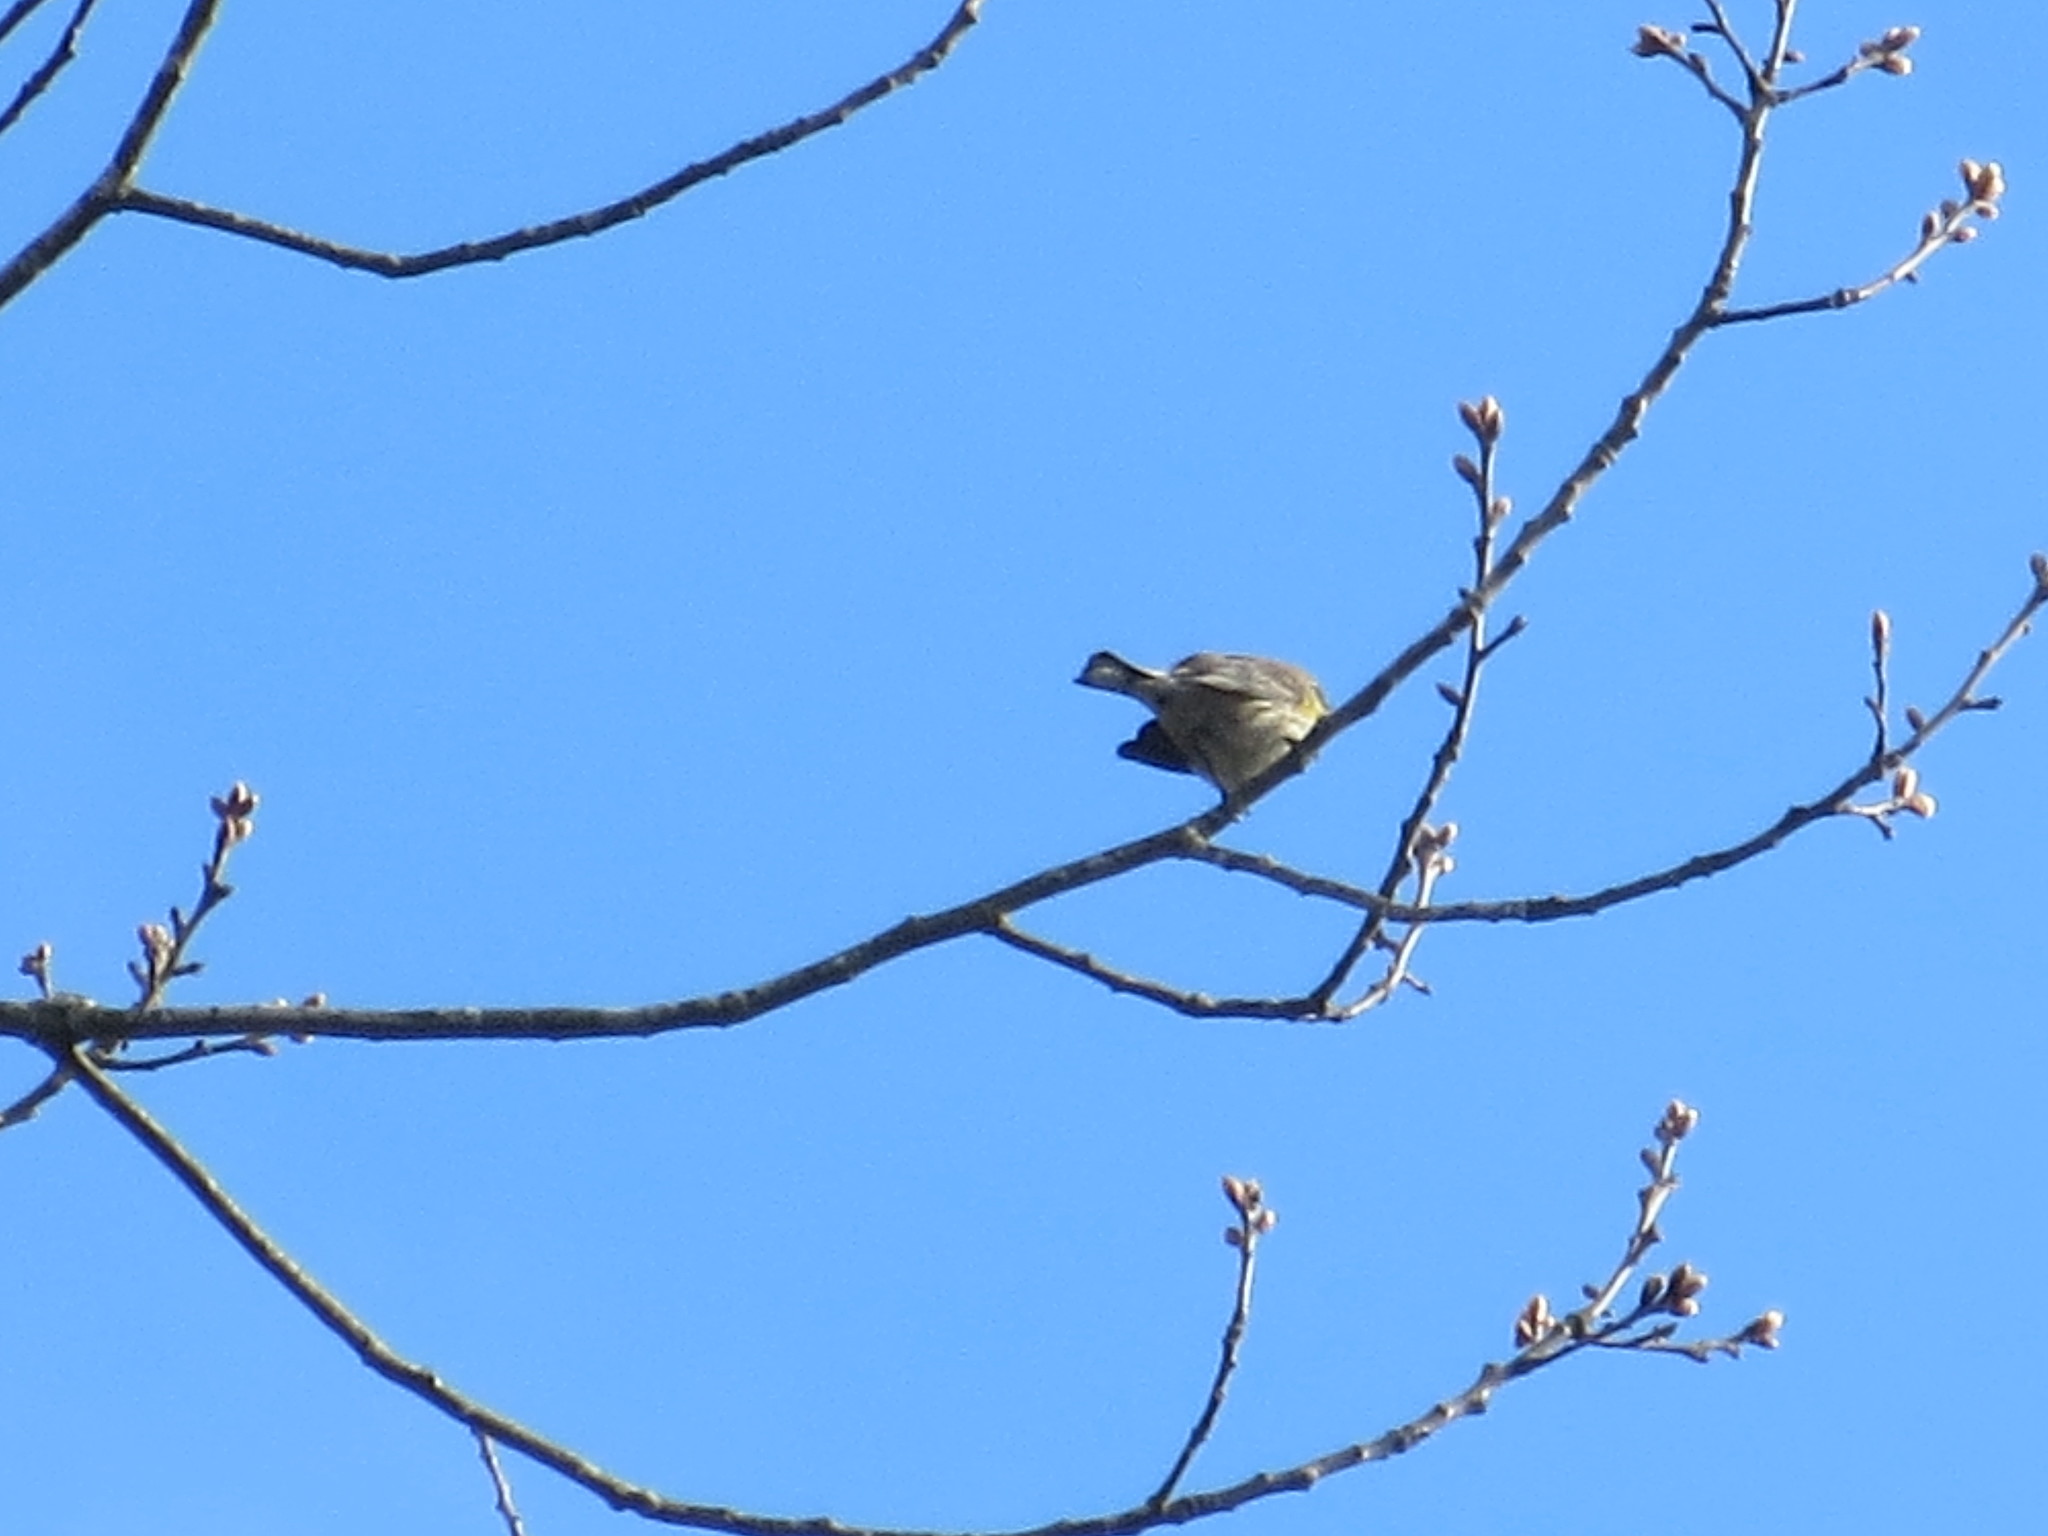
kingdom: Animalia
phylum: Chordata
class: Aves
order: Passeriformes
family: Parulidae
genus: Setophaga
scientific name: Setophaga coronata
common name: Myrtle warbler
